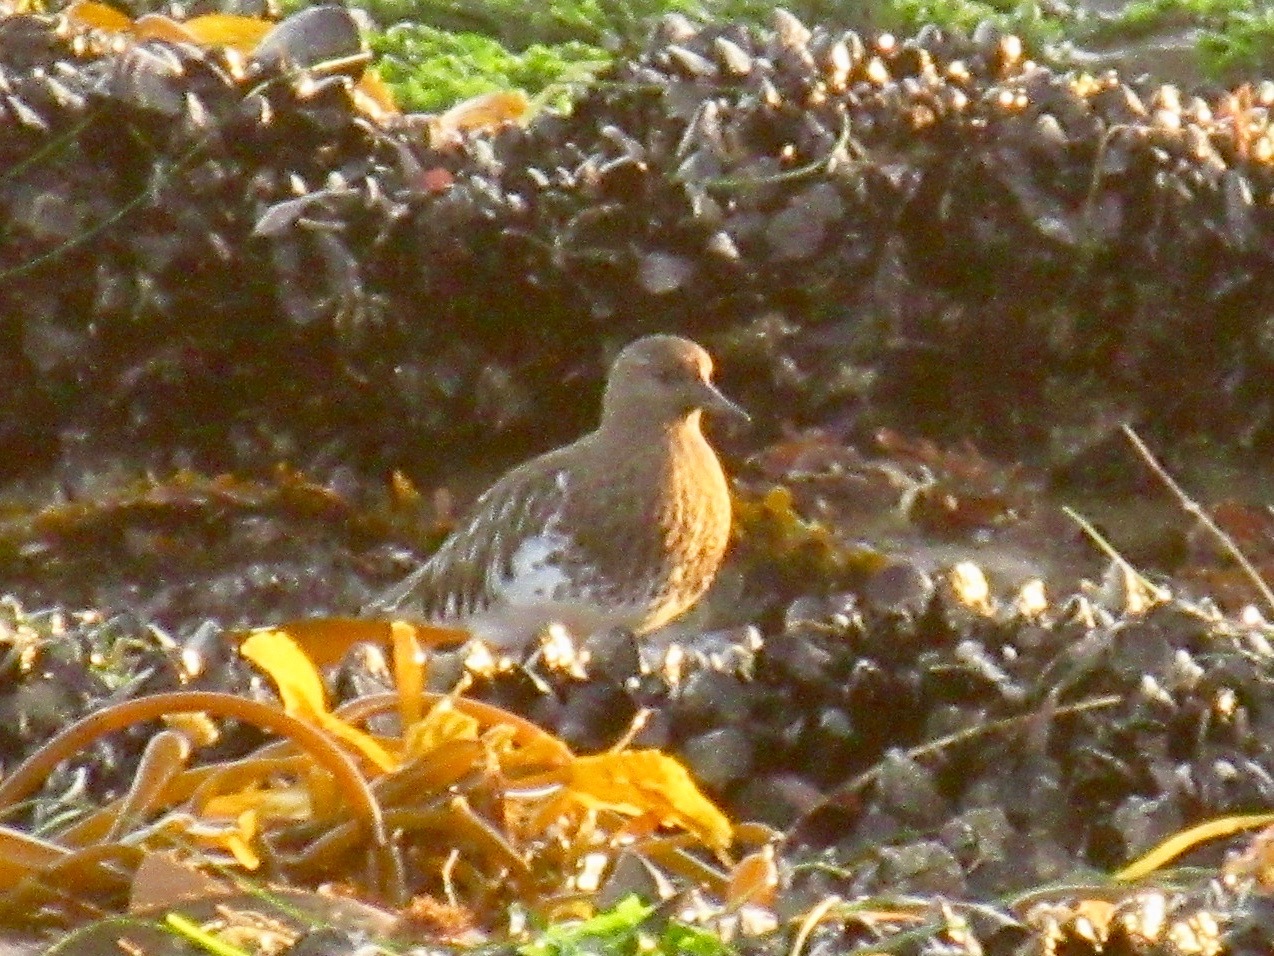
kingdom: Animalia
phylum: Chordata
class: Aves
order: Charadriiformes
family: Scolopacidae
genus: Arenaria
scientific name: Arenaria melanocephala
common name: Black turnstone
